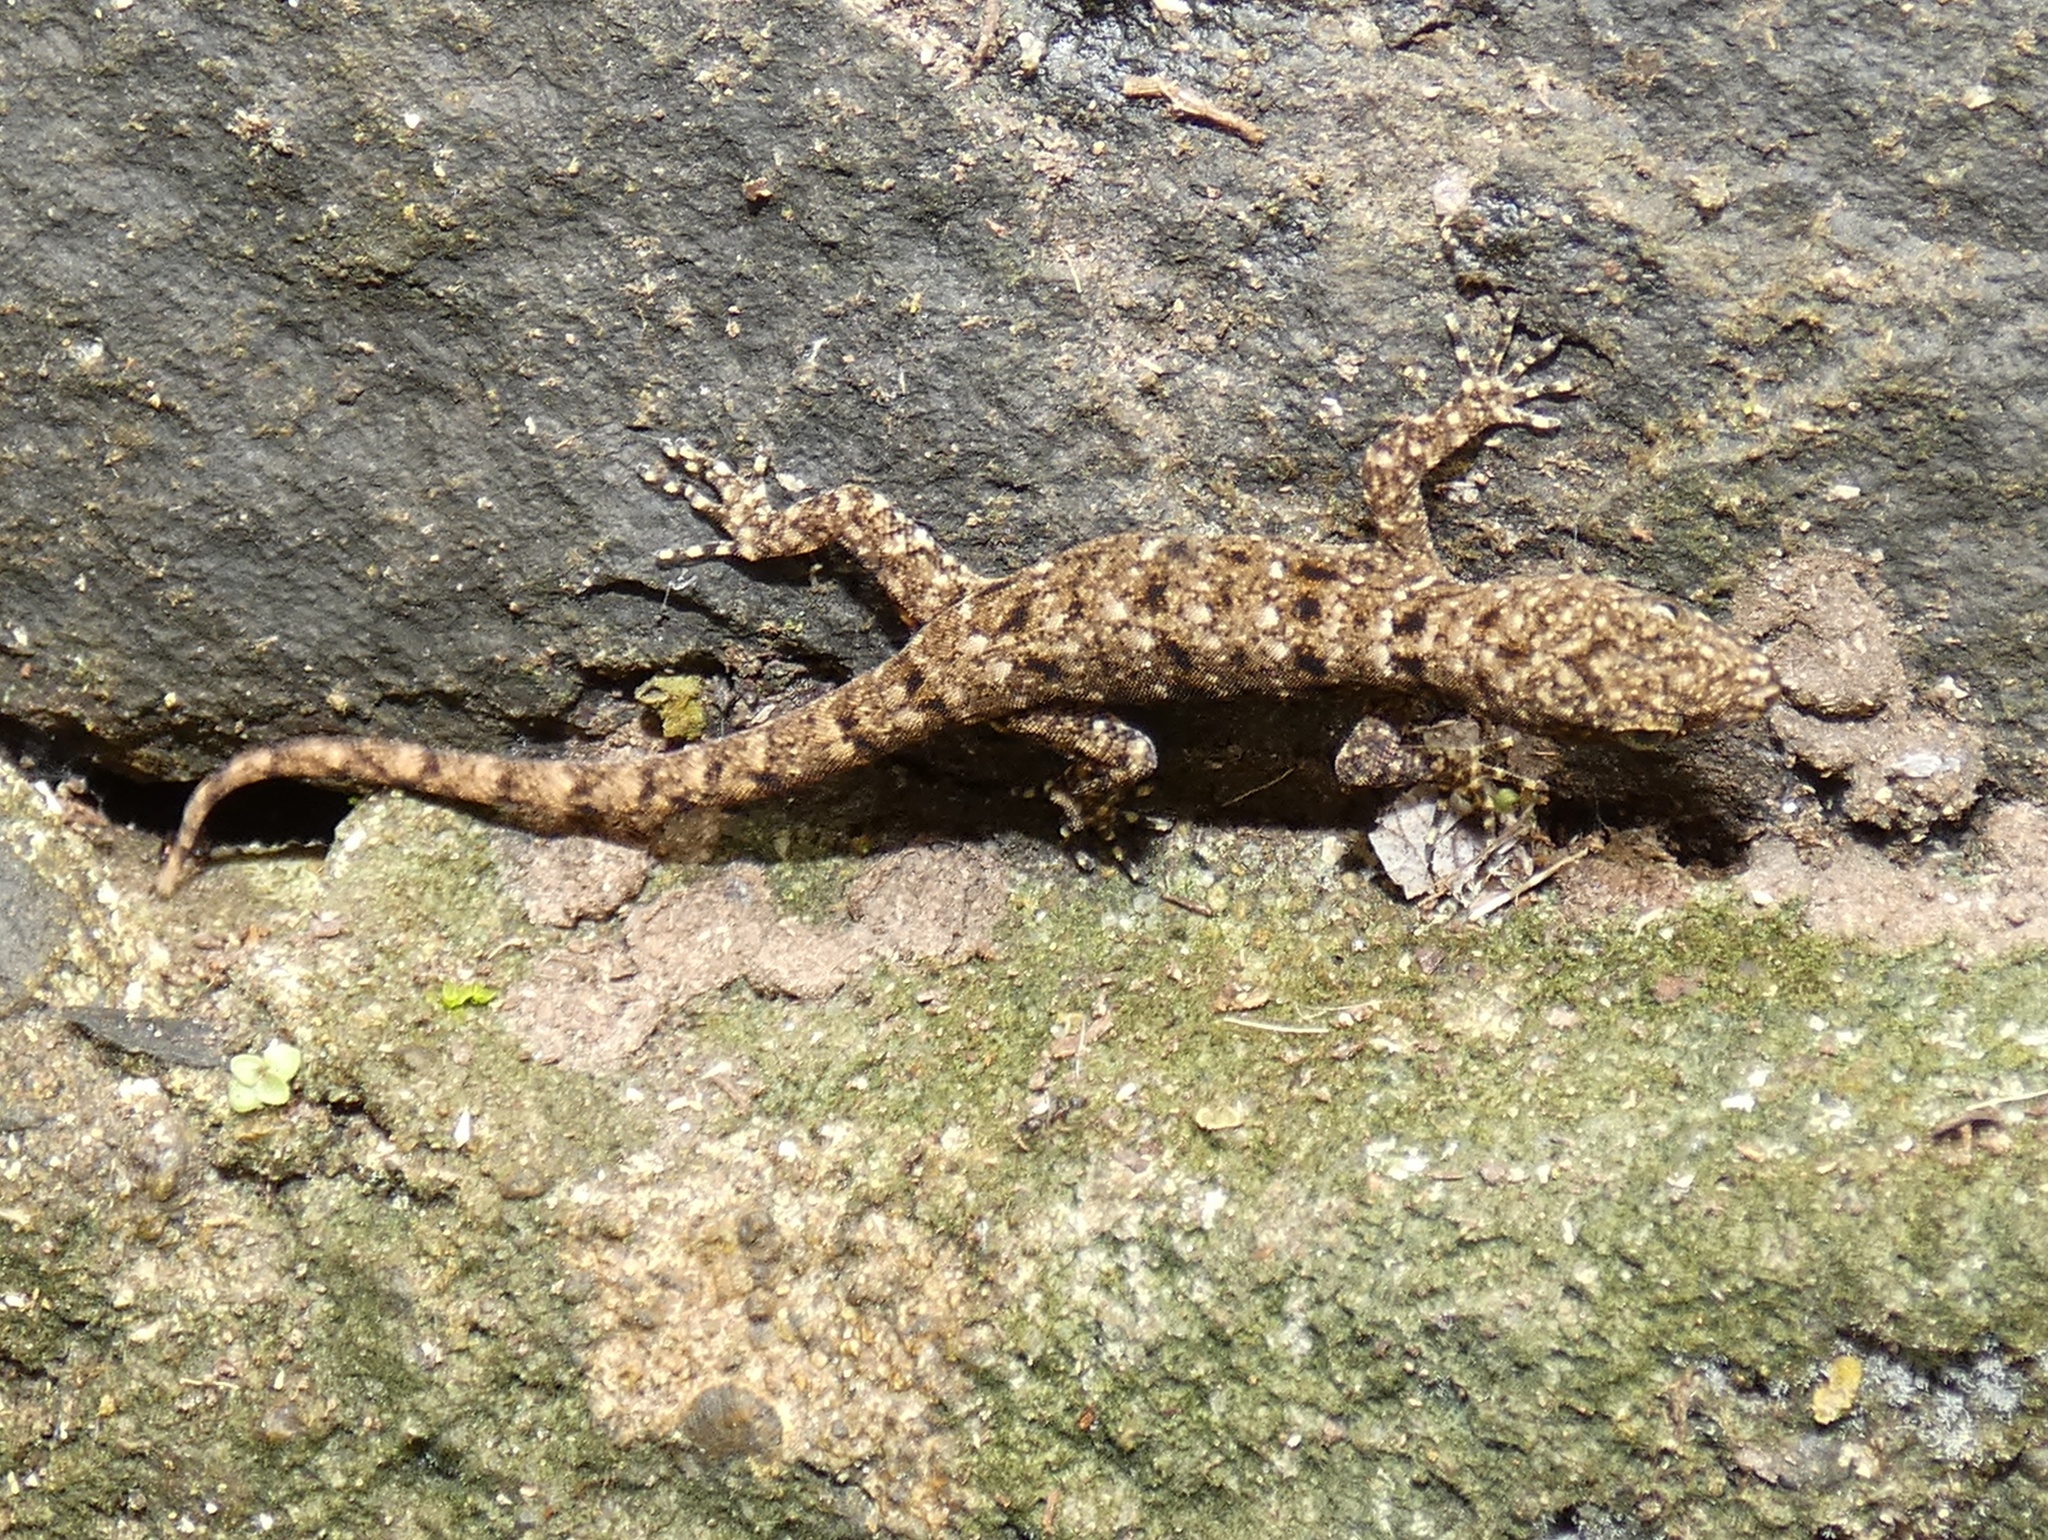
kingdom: Animalia
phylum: Chordata
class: Squamata
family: Sphaerodactylidae
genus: Gonatodes
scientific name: Gonatodes albogularis
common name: Yellow-headed gecko
